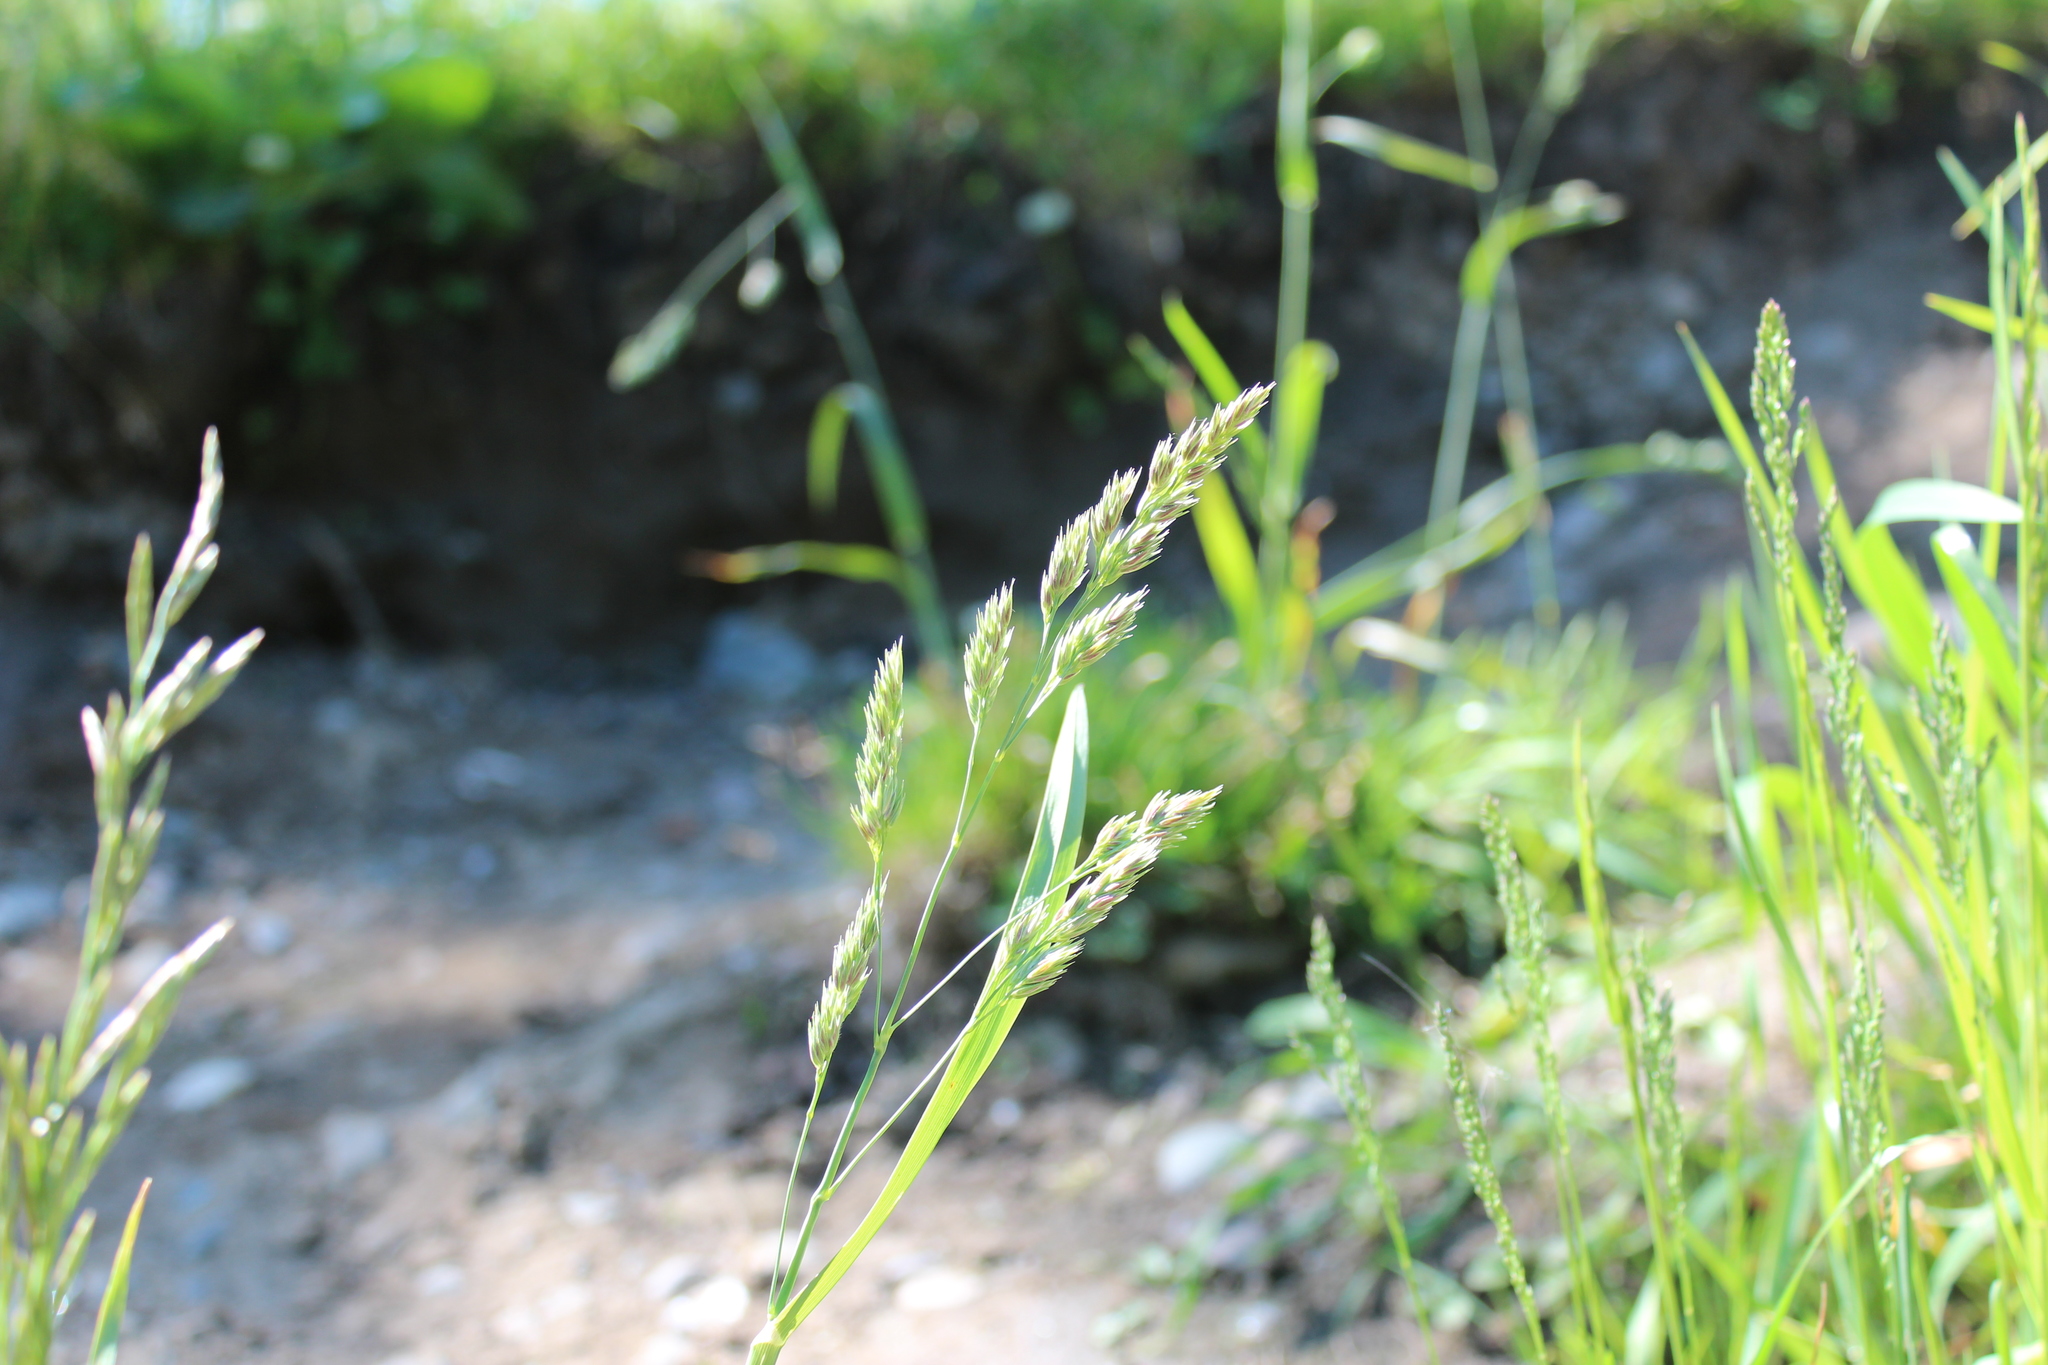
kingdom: Plantae
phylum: Tracheophyta
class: Liliopsida
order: Poales
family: Poaceae
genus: Dactylis
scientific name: Dactylis glomerata
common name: Orchardgrass
